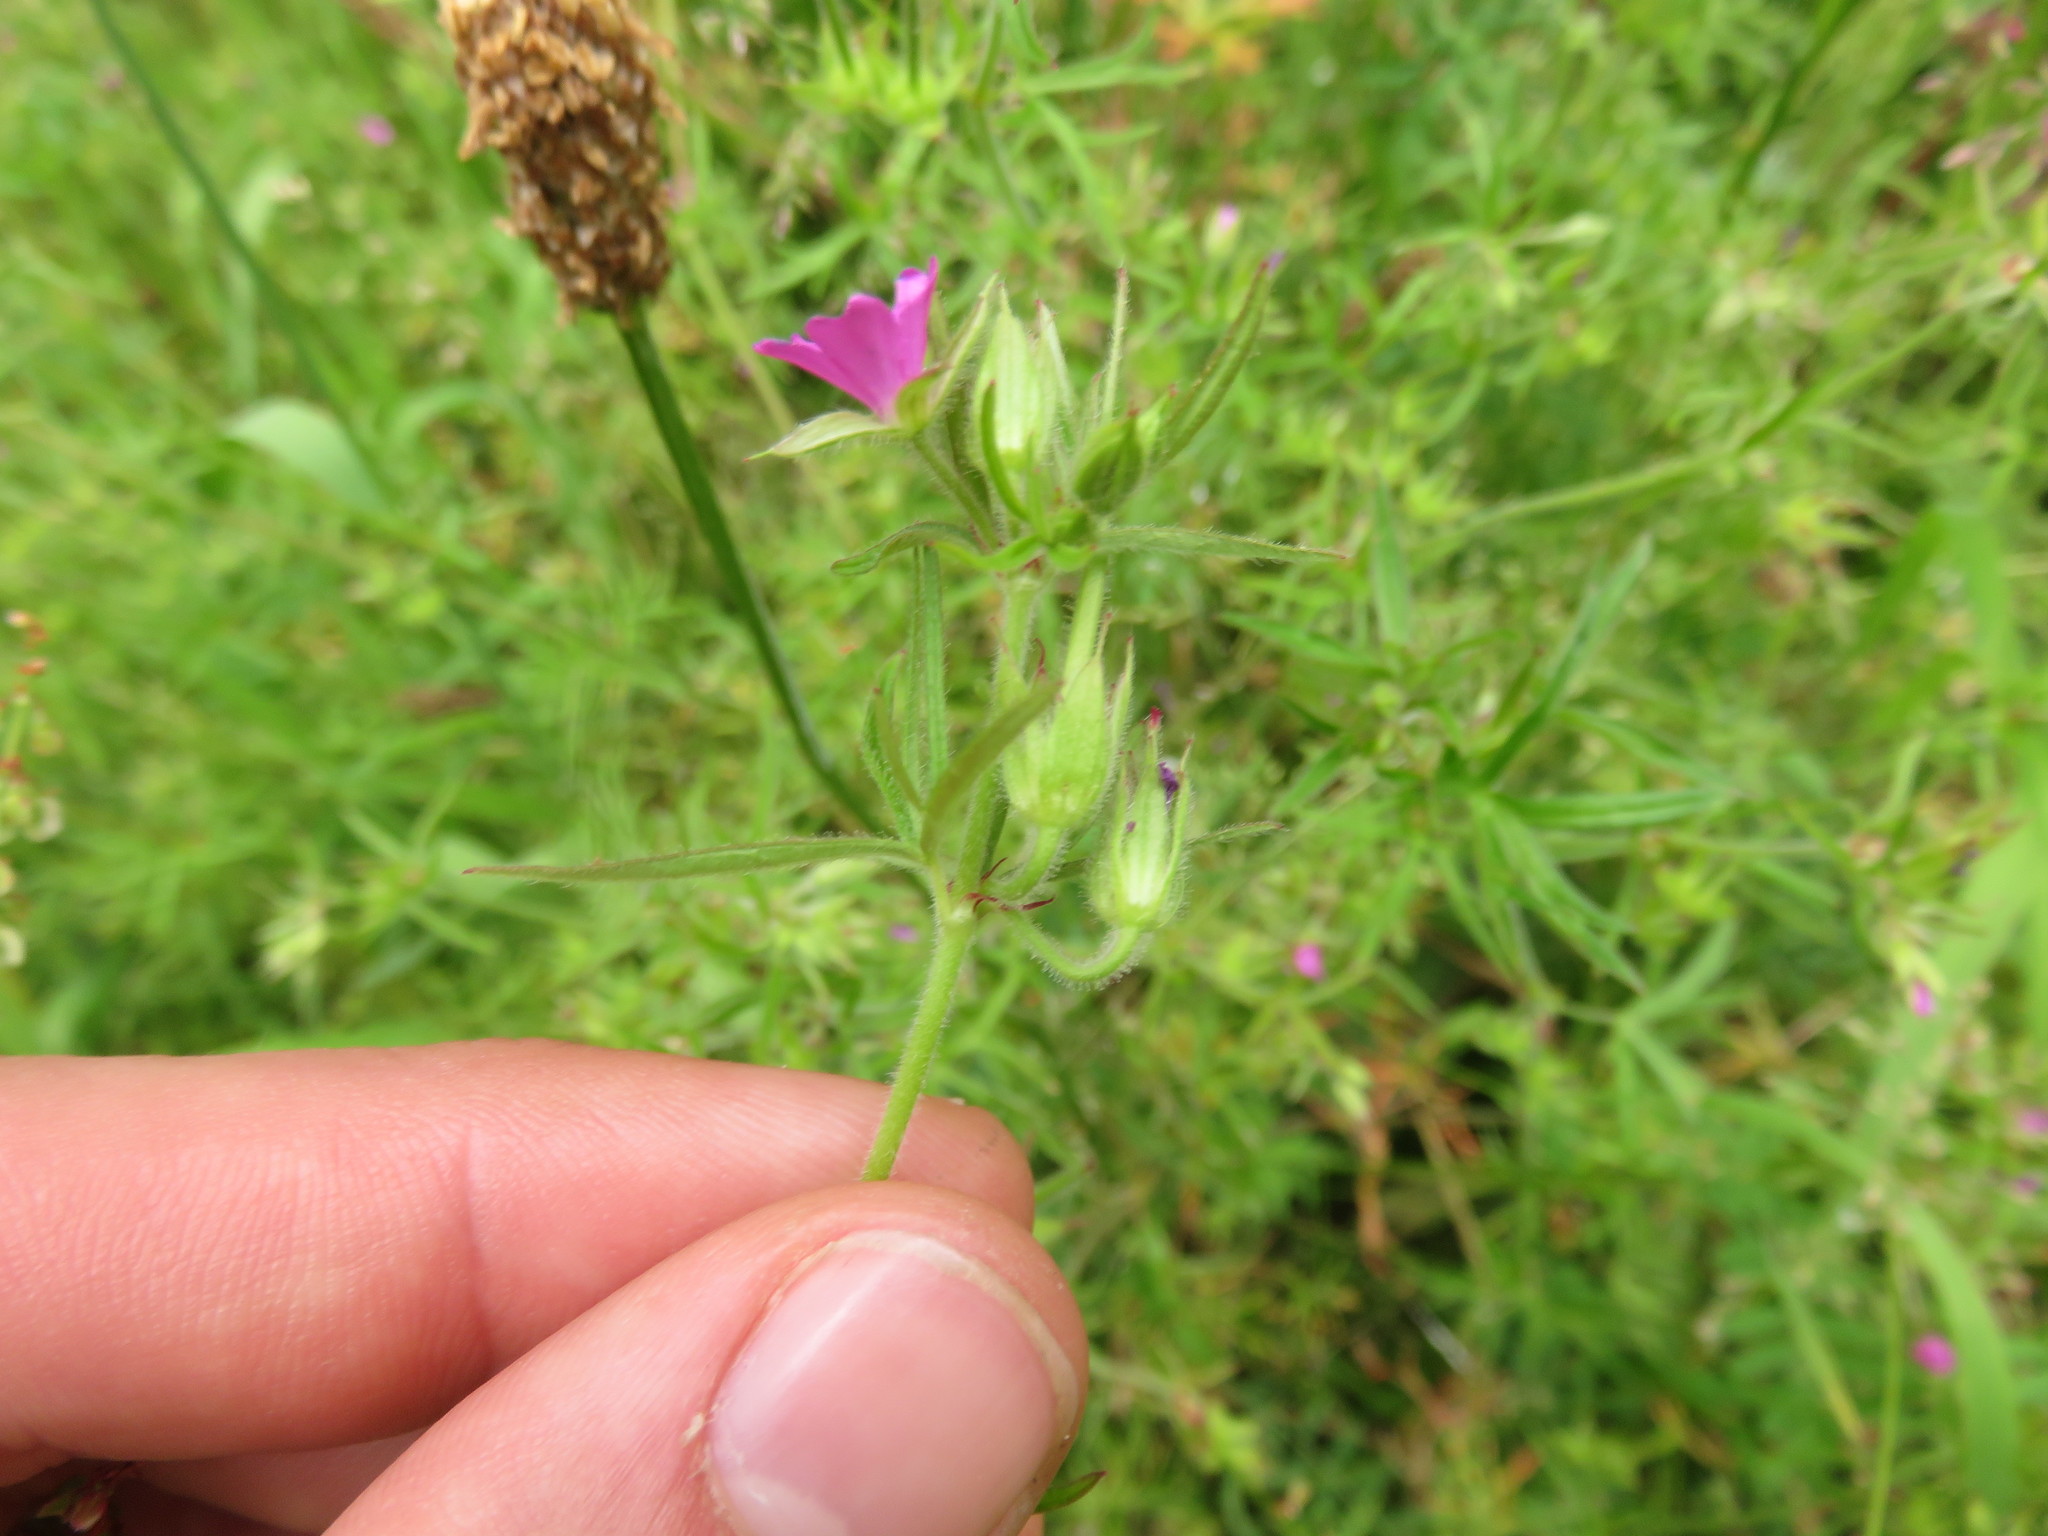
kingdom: Plantae
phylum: Tracheophyta
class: Magnoliopsida
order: Geraniales
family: Geraniaceae
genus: Geranium
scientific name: Geranium dissectum
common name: Cut-leaved crane's-bill
